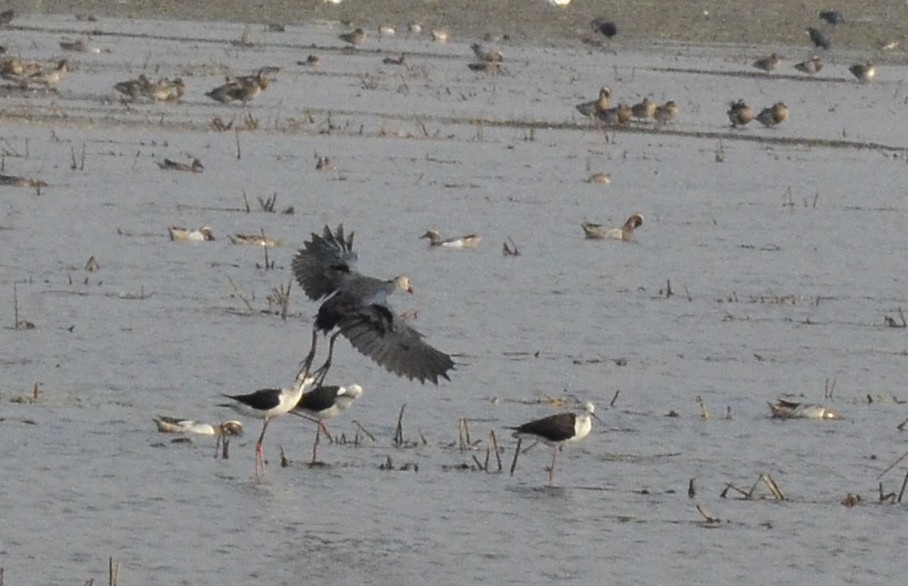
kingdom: Animalia
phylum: Chordata
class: Aves
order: Gruiformes
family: Rallidae
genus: Porphyrio
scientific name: Porphyrio porphyrio
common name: Purple swamphen
